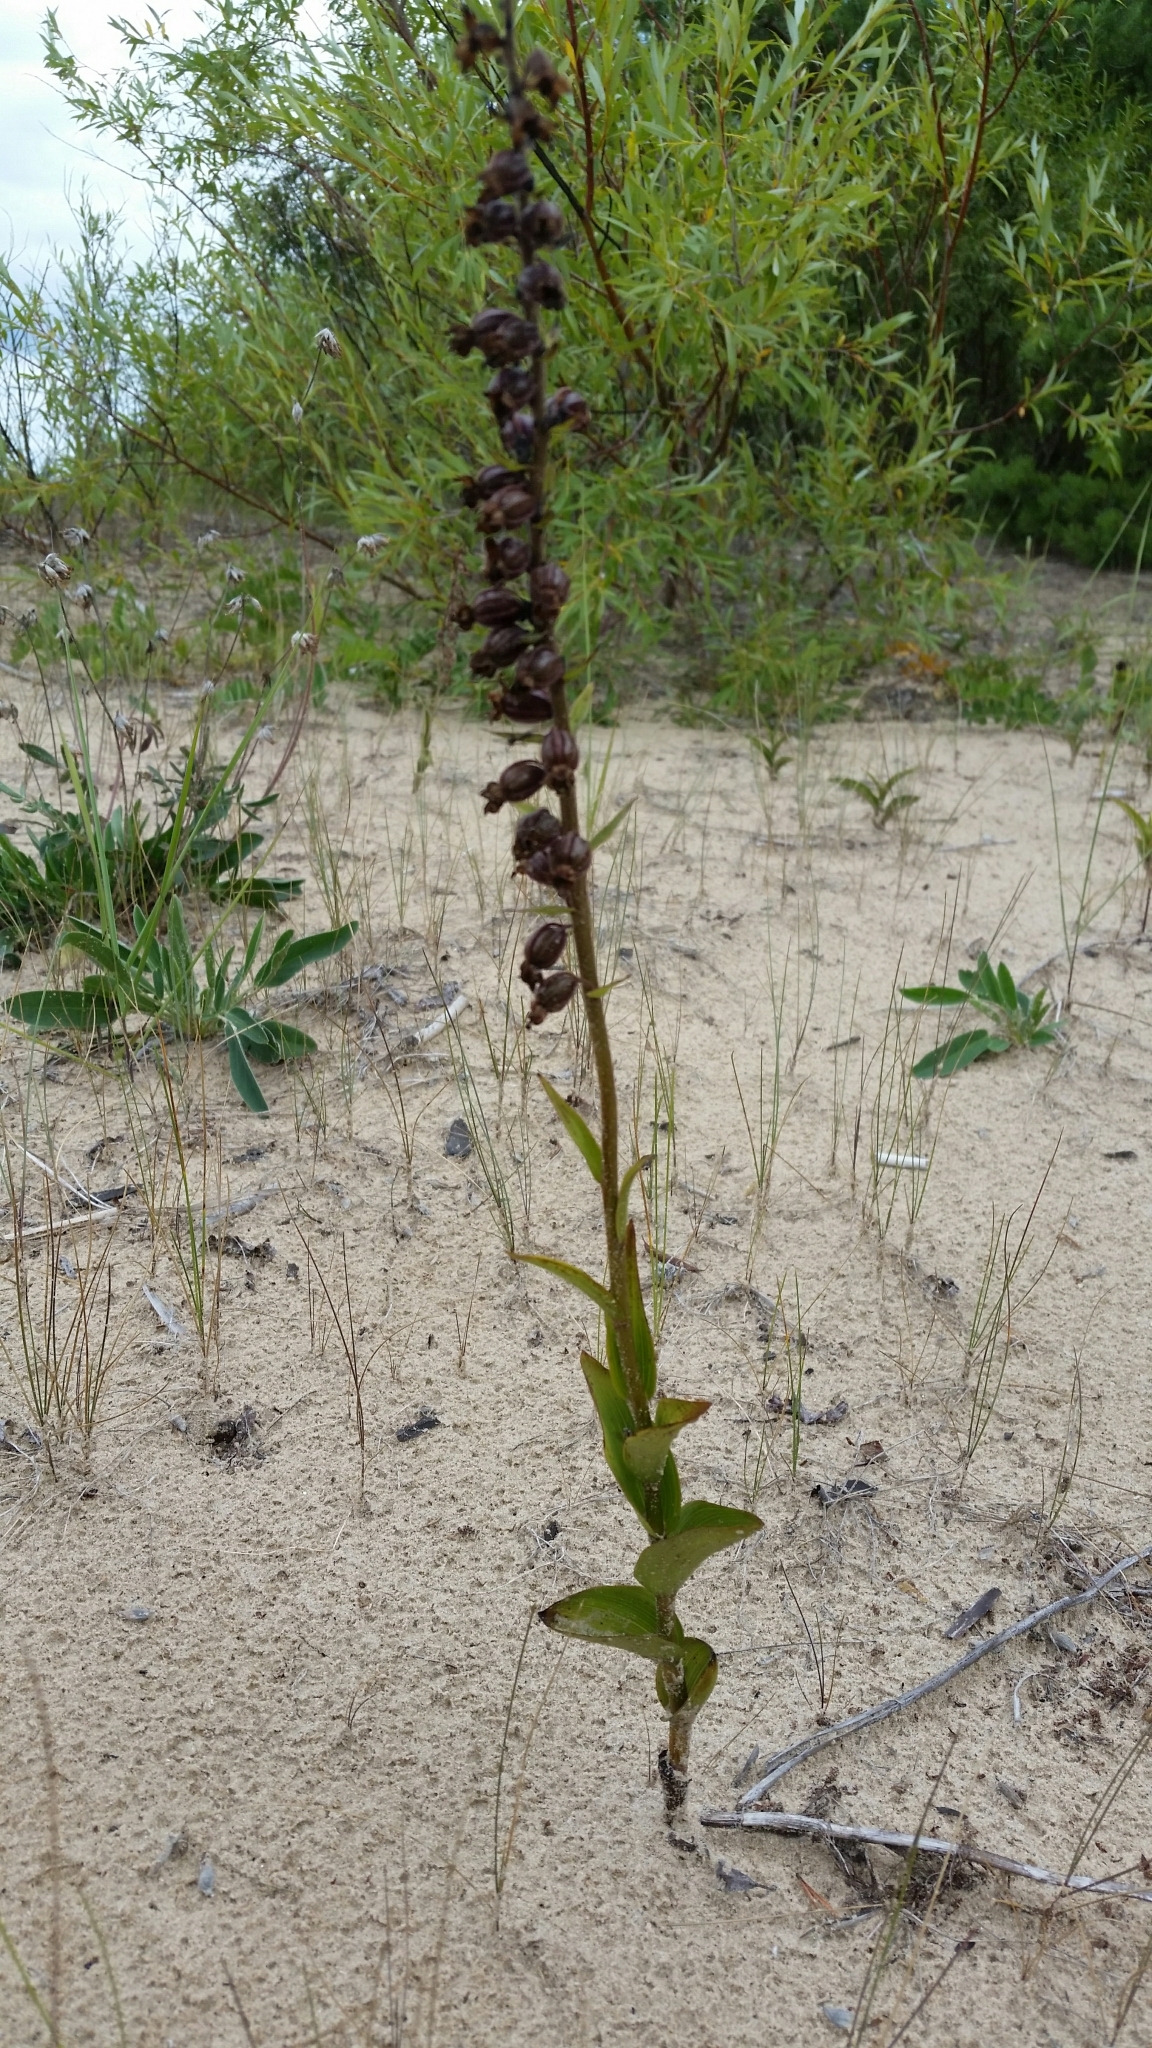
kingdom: Plantae
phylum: Tracheophyta
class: Liliopsida
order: Asparagales
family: Orchidaceae
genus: Epipactis
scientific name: Epipactis atrorubens
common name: Dark-red helleborine
